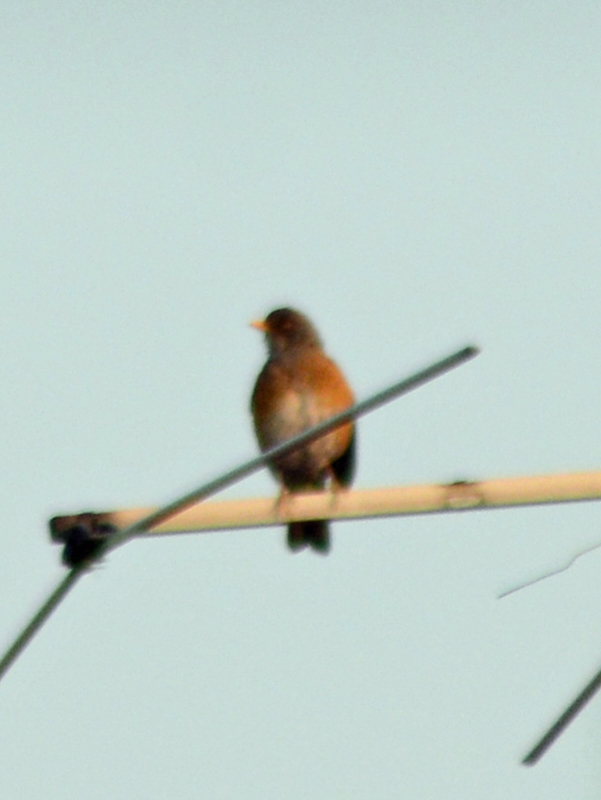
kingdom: Animalia
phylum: Chordata
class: Aves
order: Passeriformes
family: Turdidae
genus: Turdus
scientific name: Turdus rufopalliatus
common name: Rufous-backed robin
